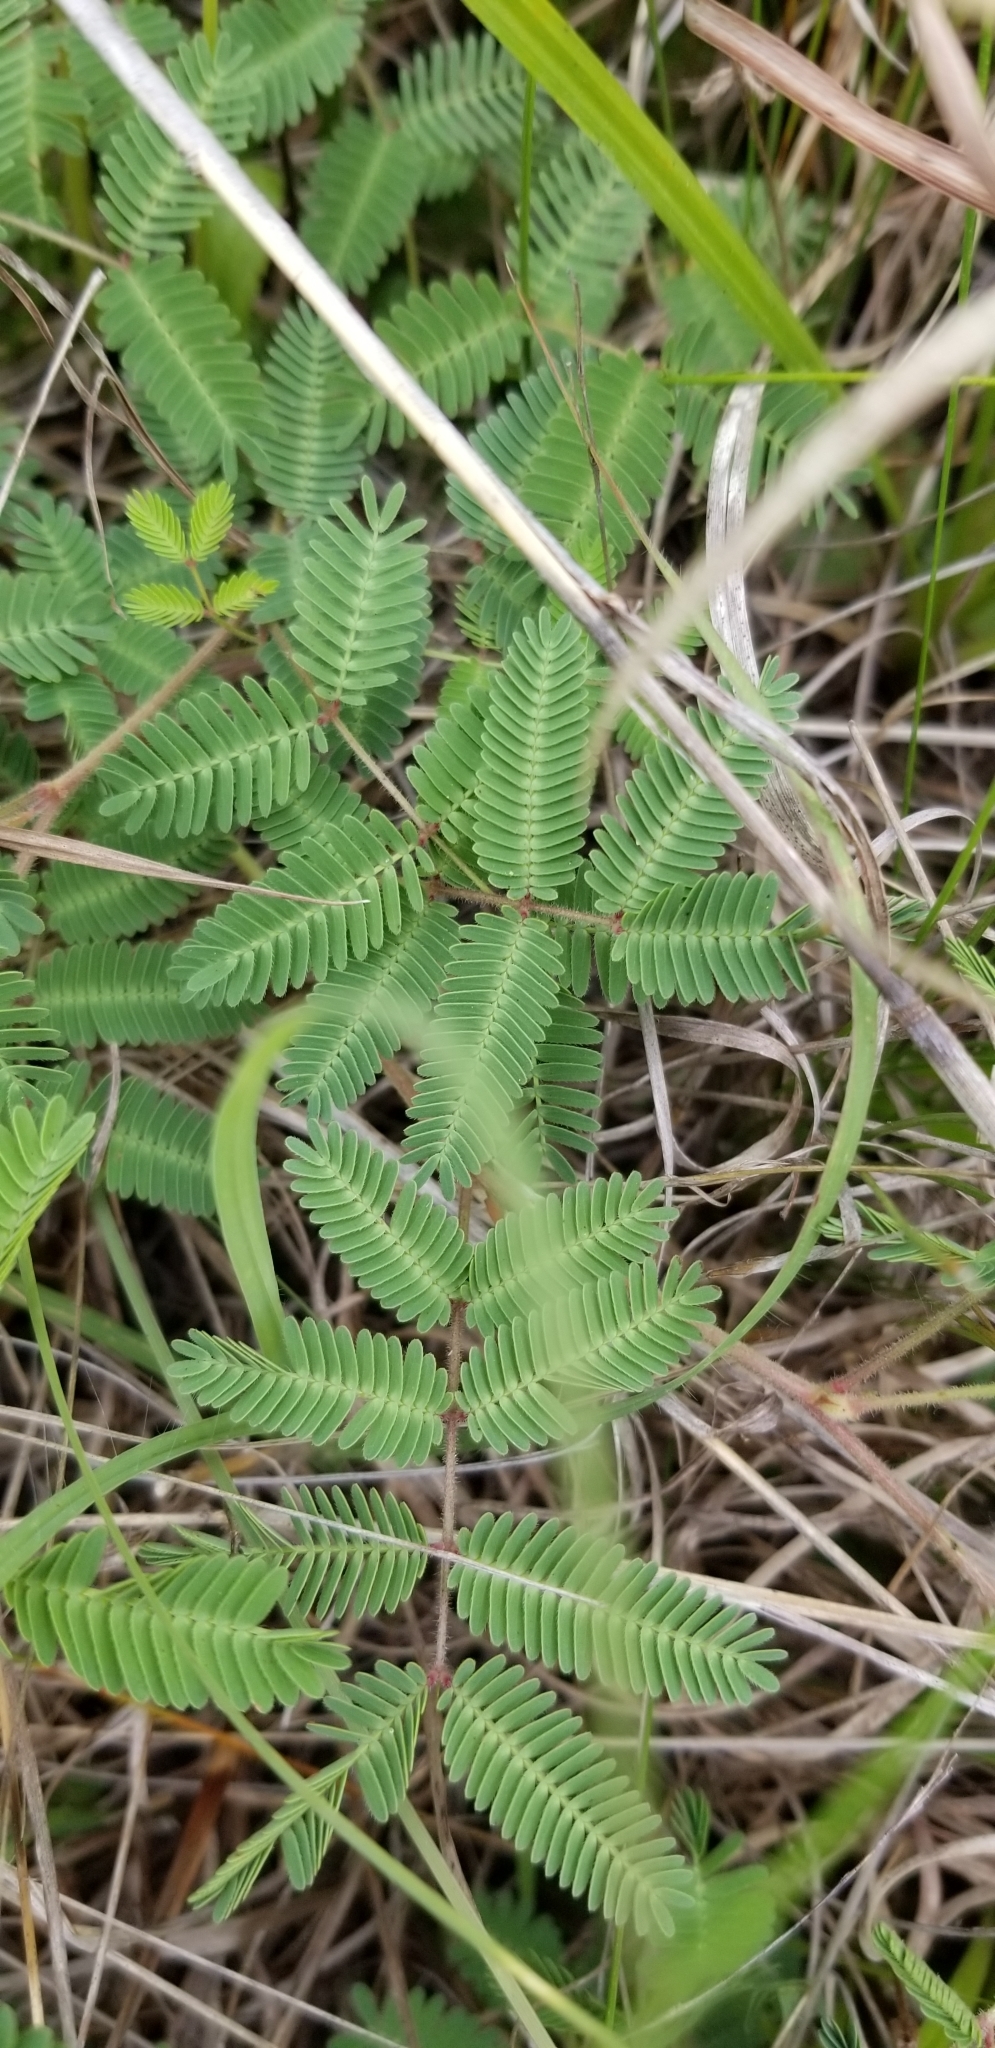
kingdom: Plantae
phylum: Tracheophyta
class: Magnoliopsida
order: Fabales
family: Fabaceae
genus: Neptunia
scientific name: Neptunia lutea
